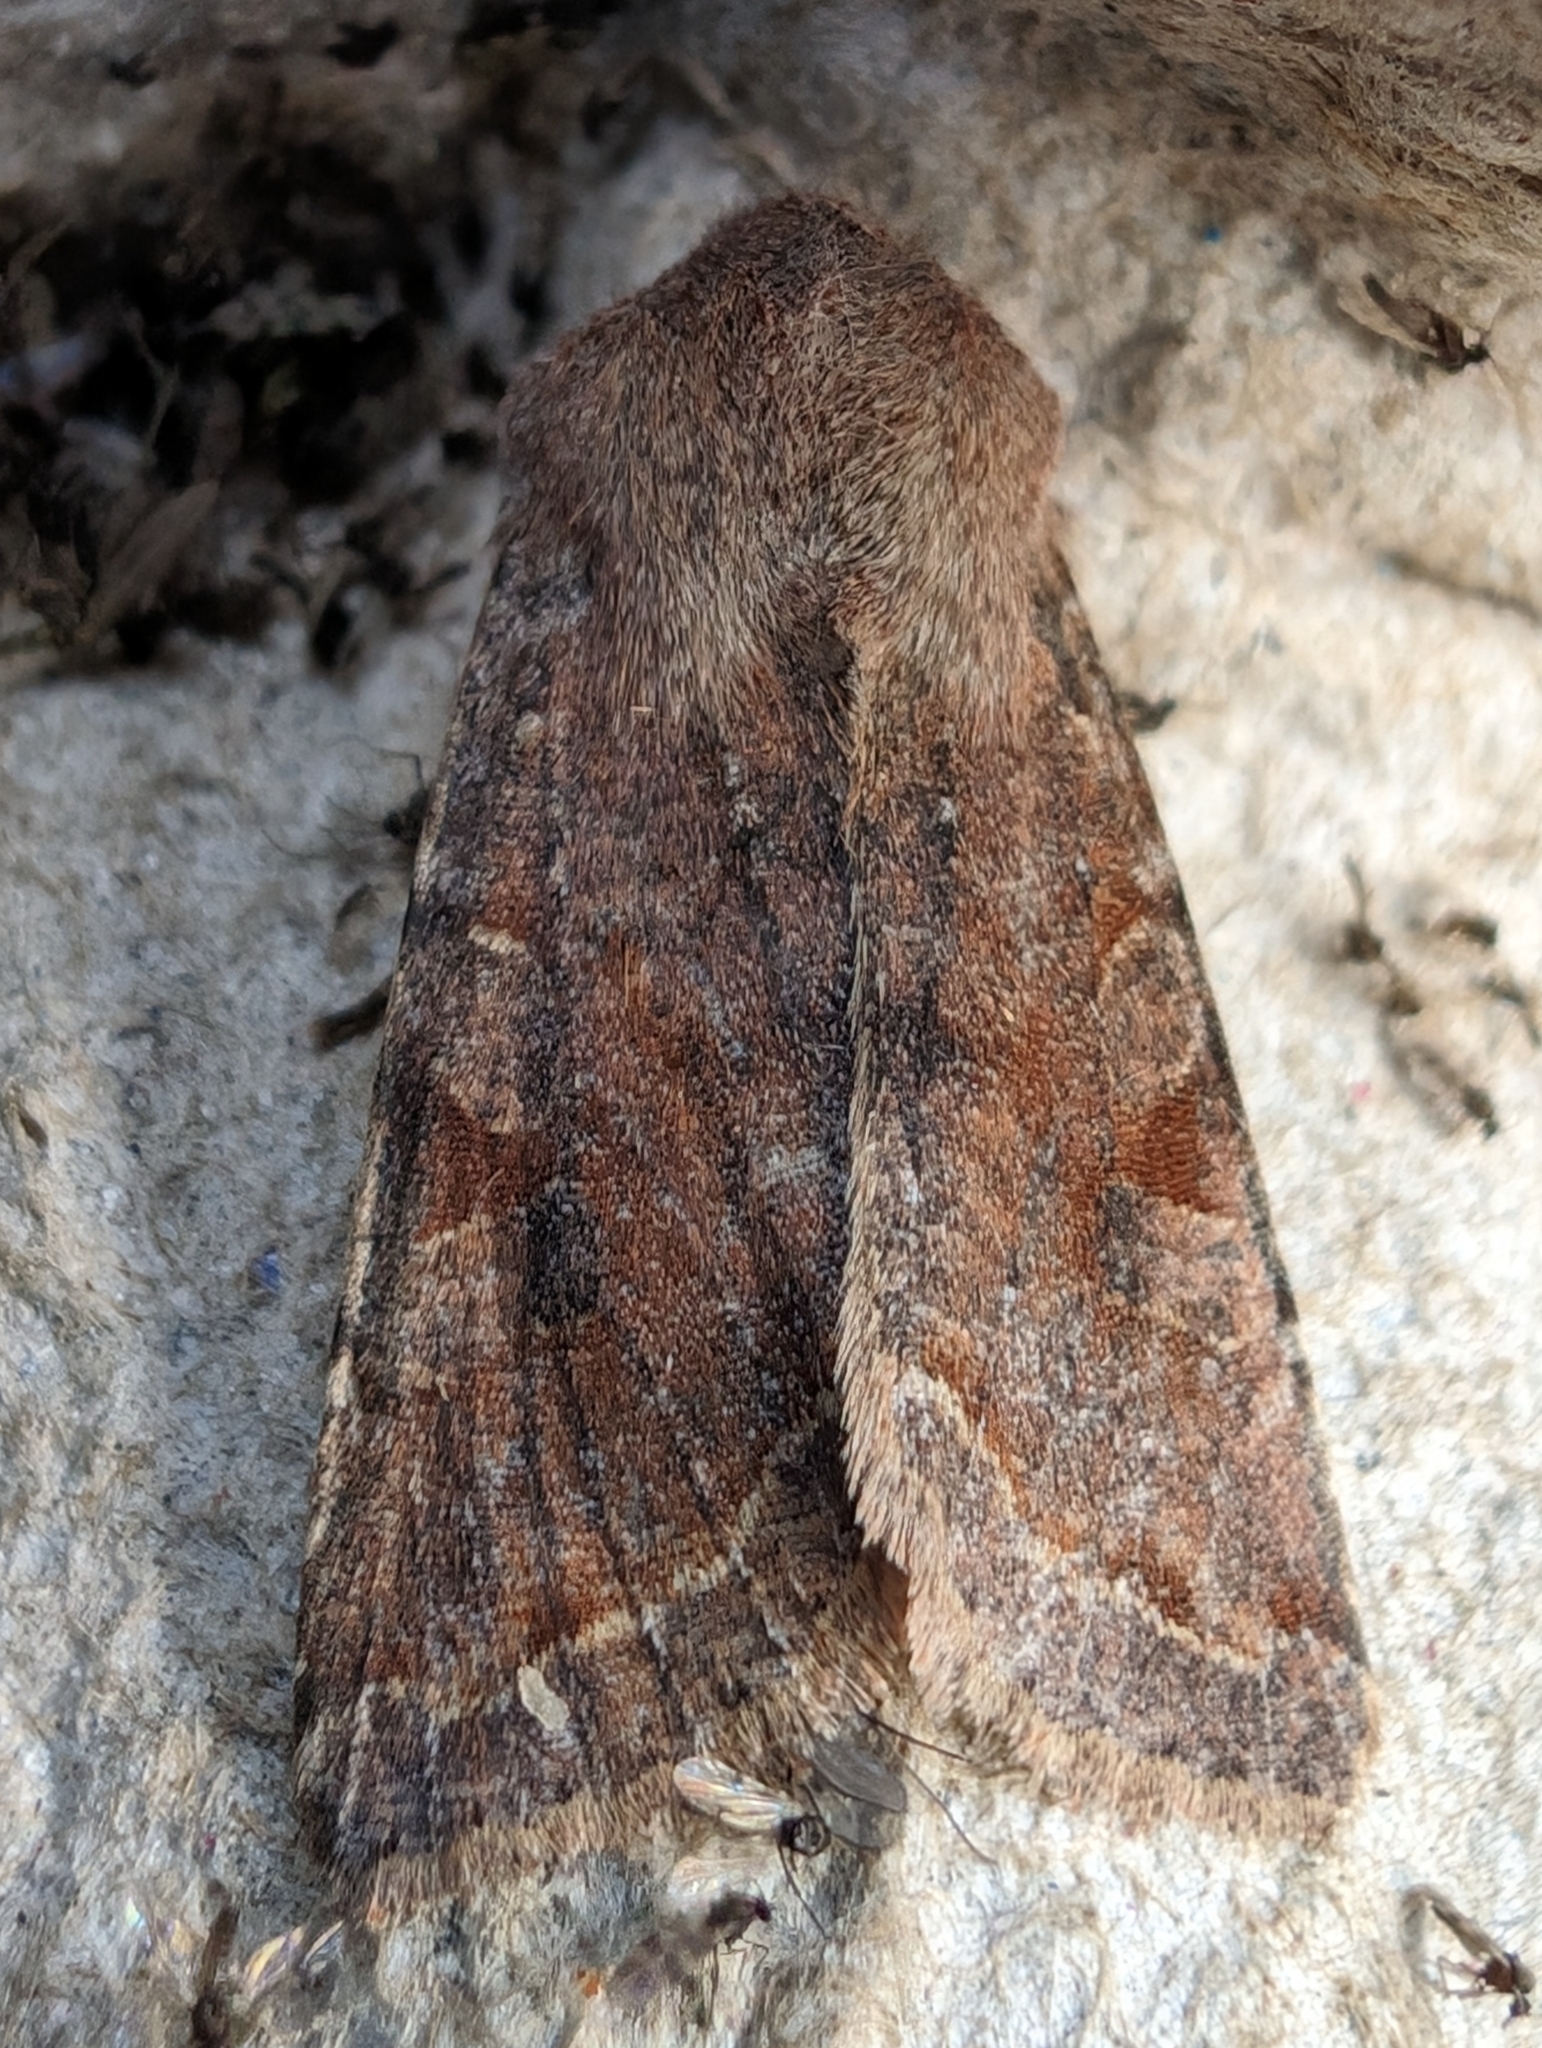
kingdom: Animalia
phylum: Arthropoda
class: Insecta
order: Lepidoptera
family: Noctuidae
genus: Orthosia
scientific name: Orthosia incerta
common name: Clouded drab
